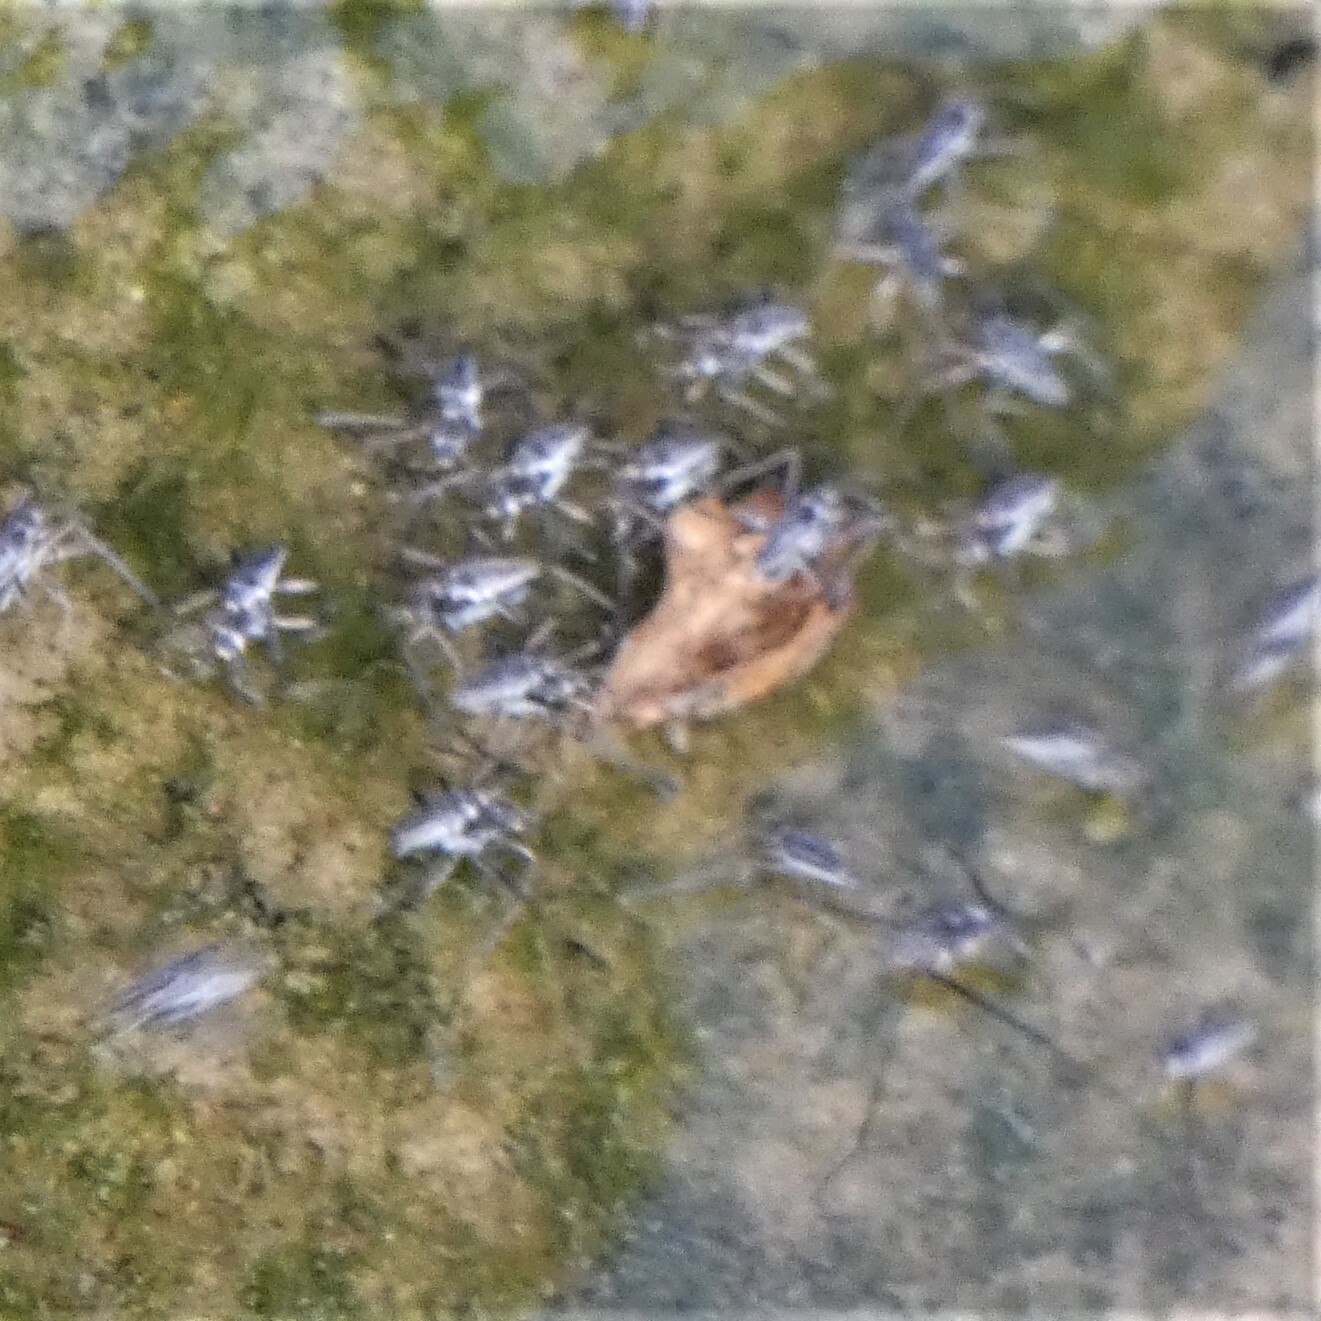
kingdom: Animalia
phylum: Arthropoda
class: Insecta
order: Hemiptera
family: Veliidae
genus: Rhagovelia
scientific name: Rhagovelia obesa
